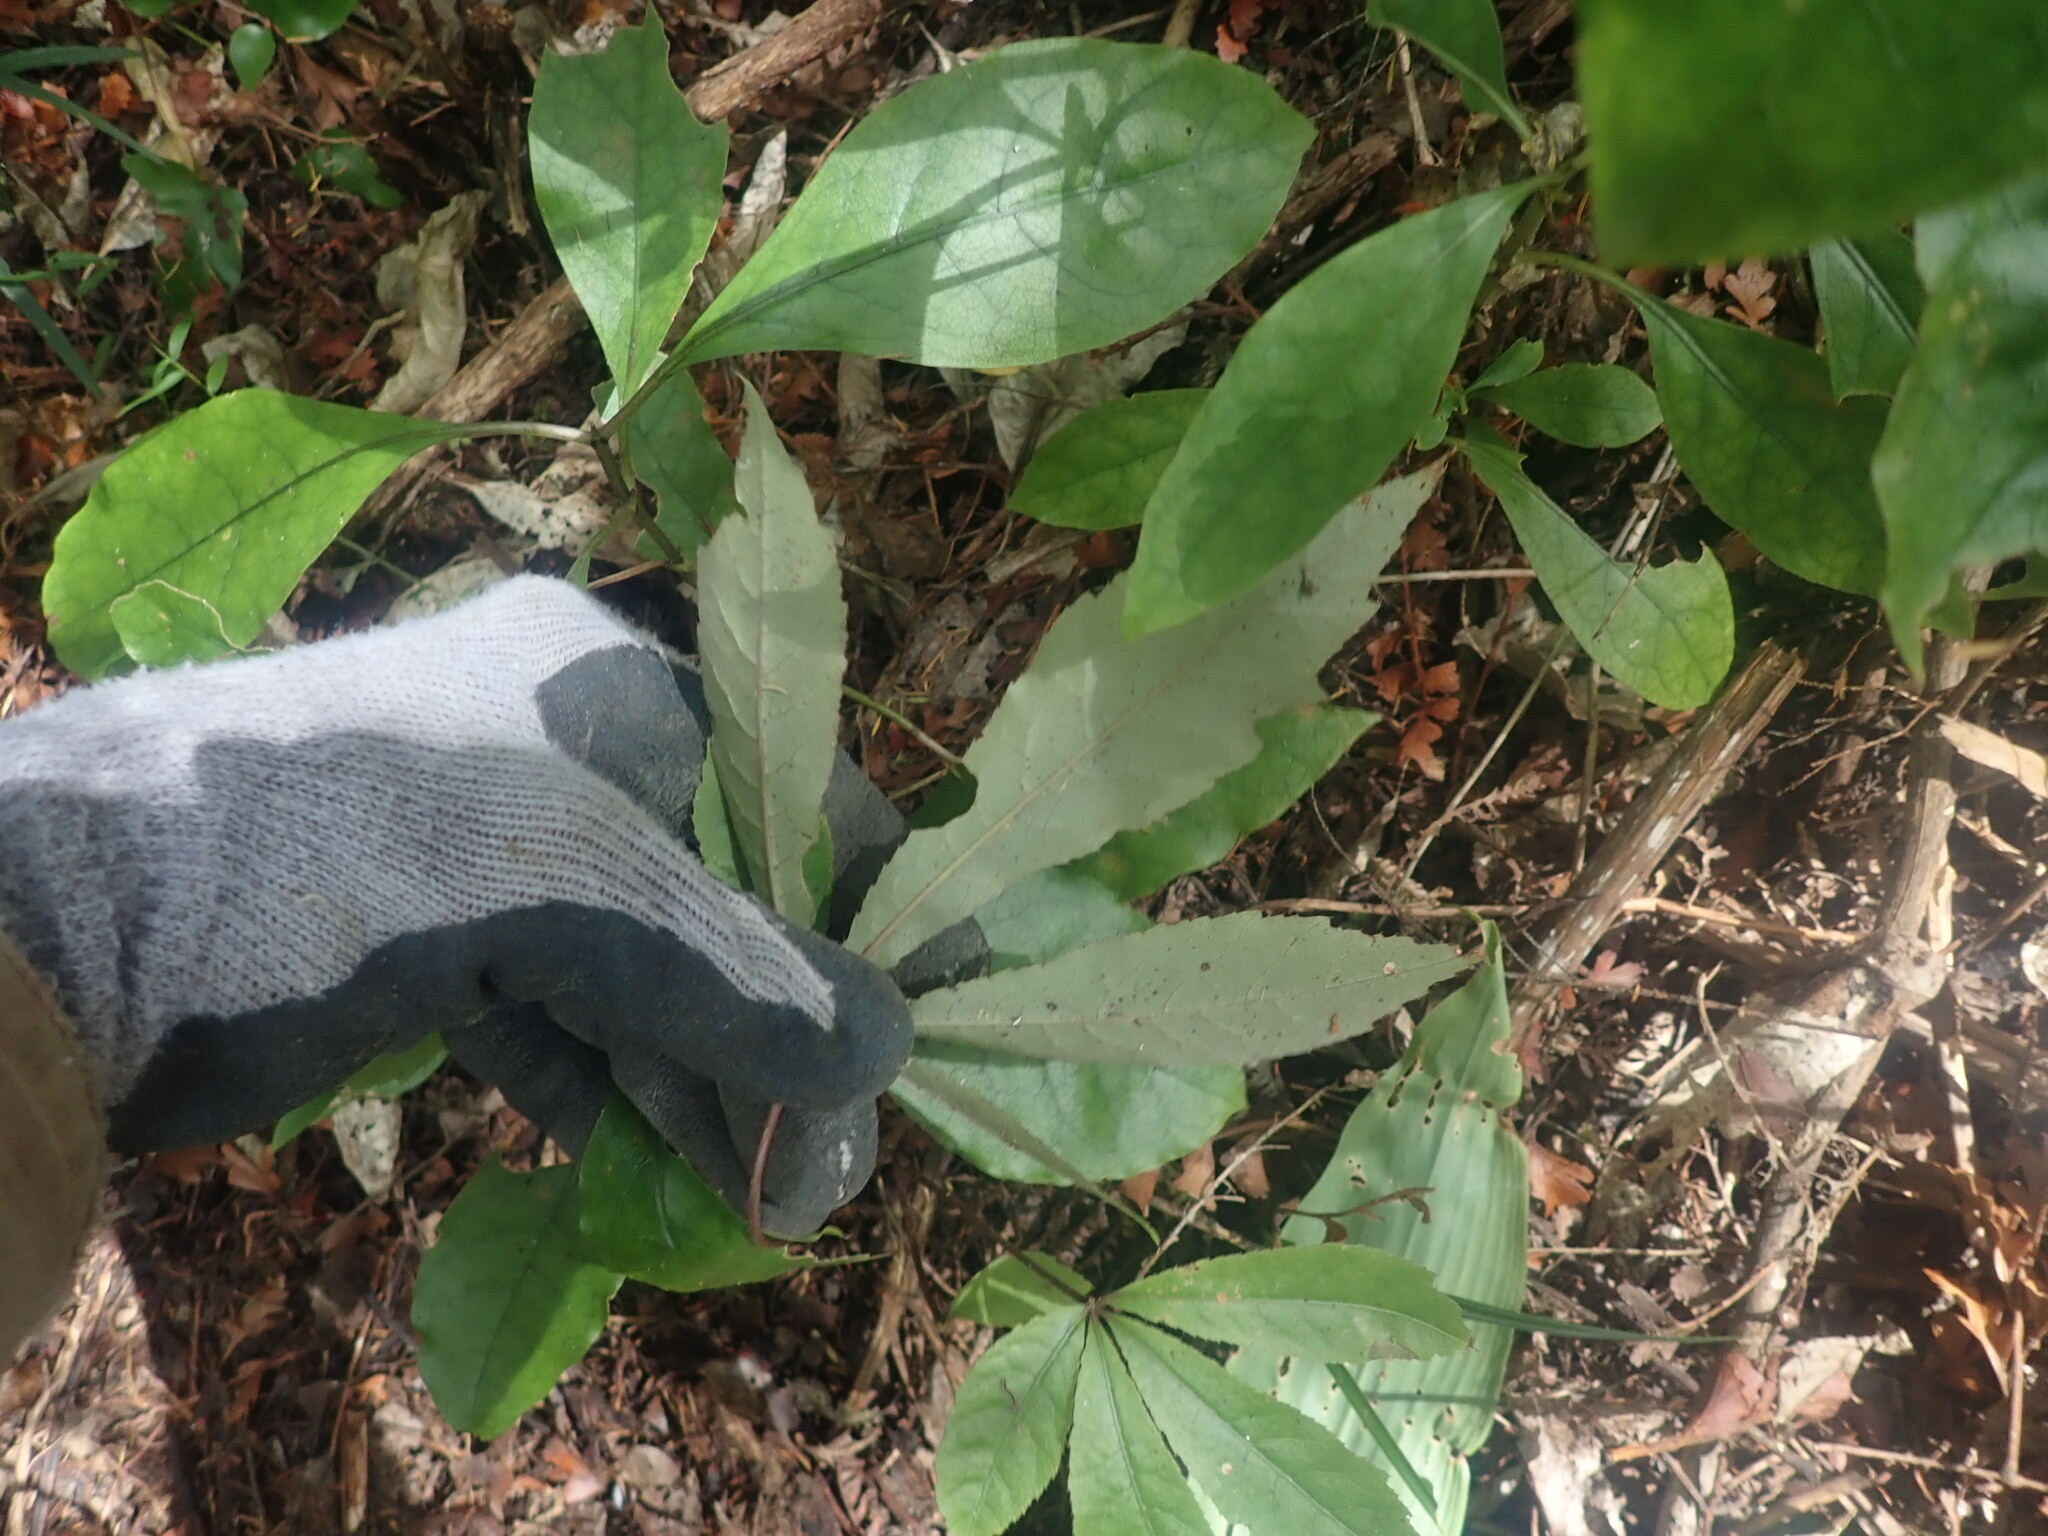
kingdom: Plantae
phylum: Tracheophyta
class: Magnoliopsida
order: Apiales
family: Araliaceae
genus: Schefflera
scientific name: Schefflera digitata
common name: Pate
